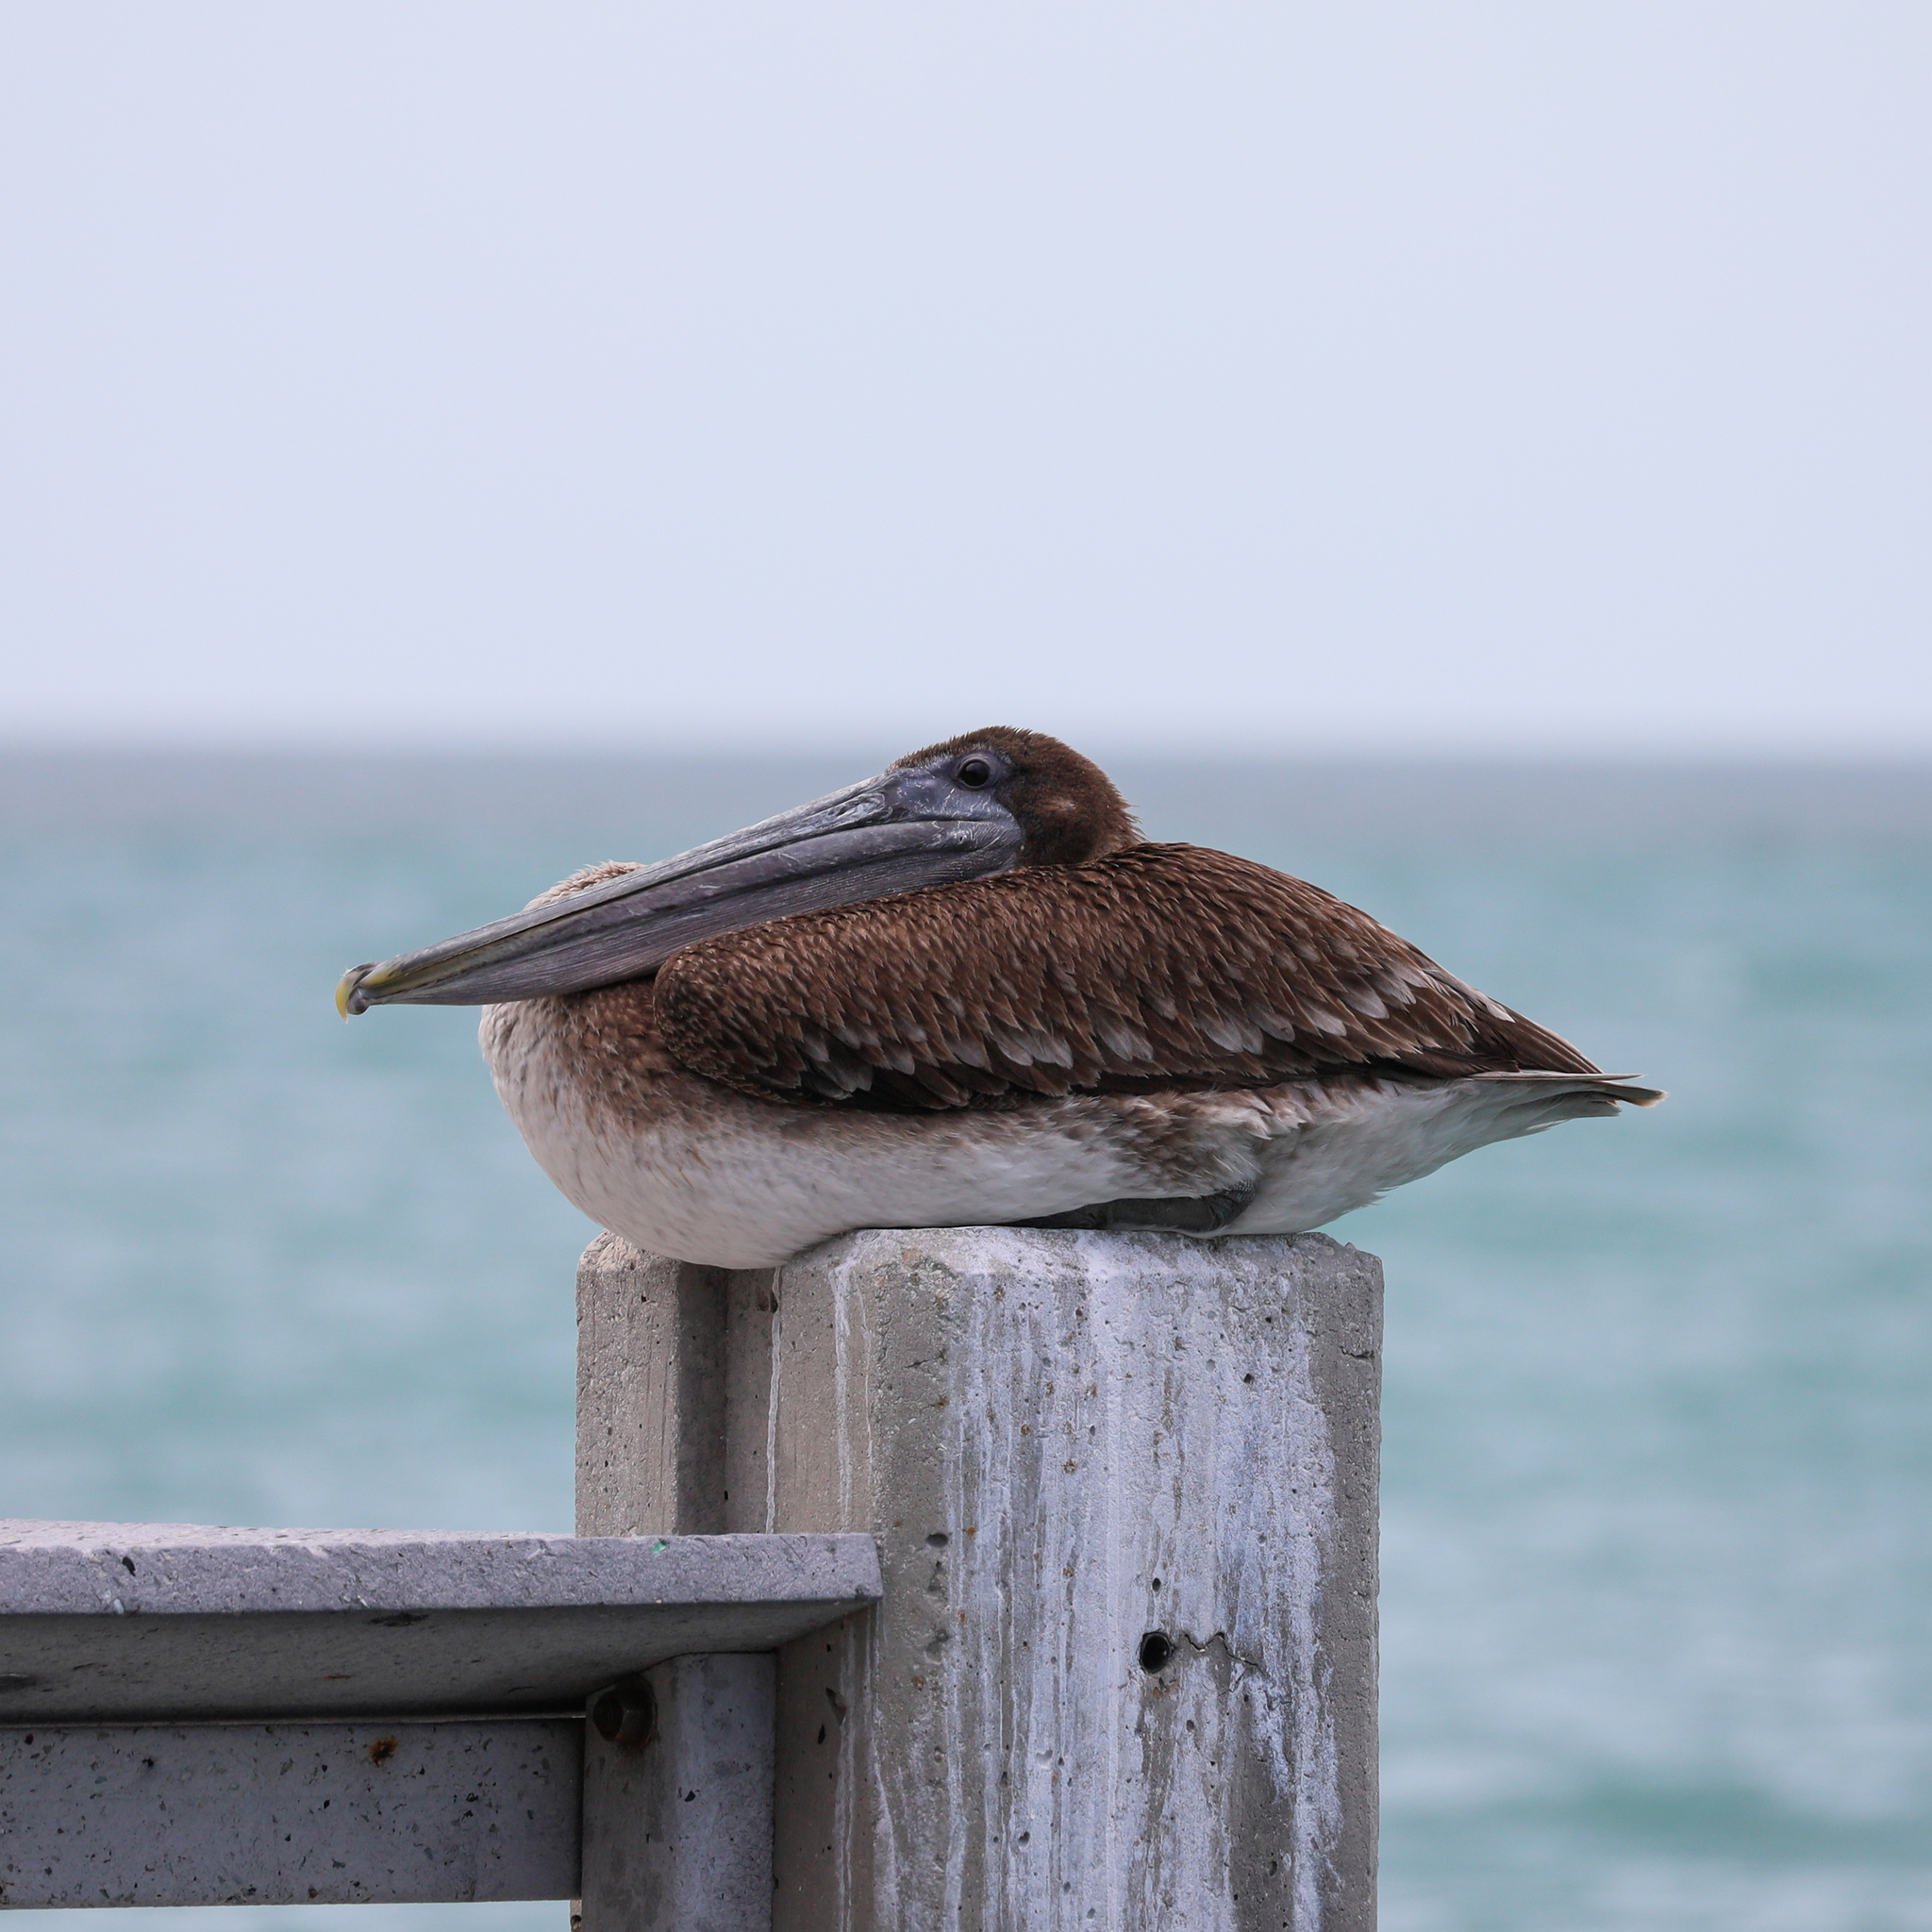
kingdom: Animalia
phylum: Chordata
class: Aves
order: Pelecaniformes
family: Pelecanidae
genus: Pelecanus
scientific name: Pelecanus occidentalis
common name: Brown pelican
